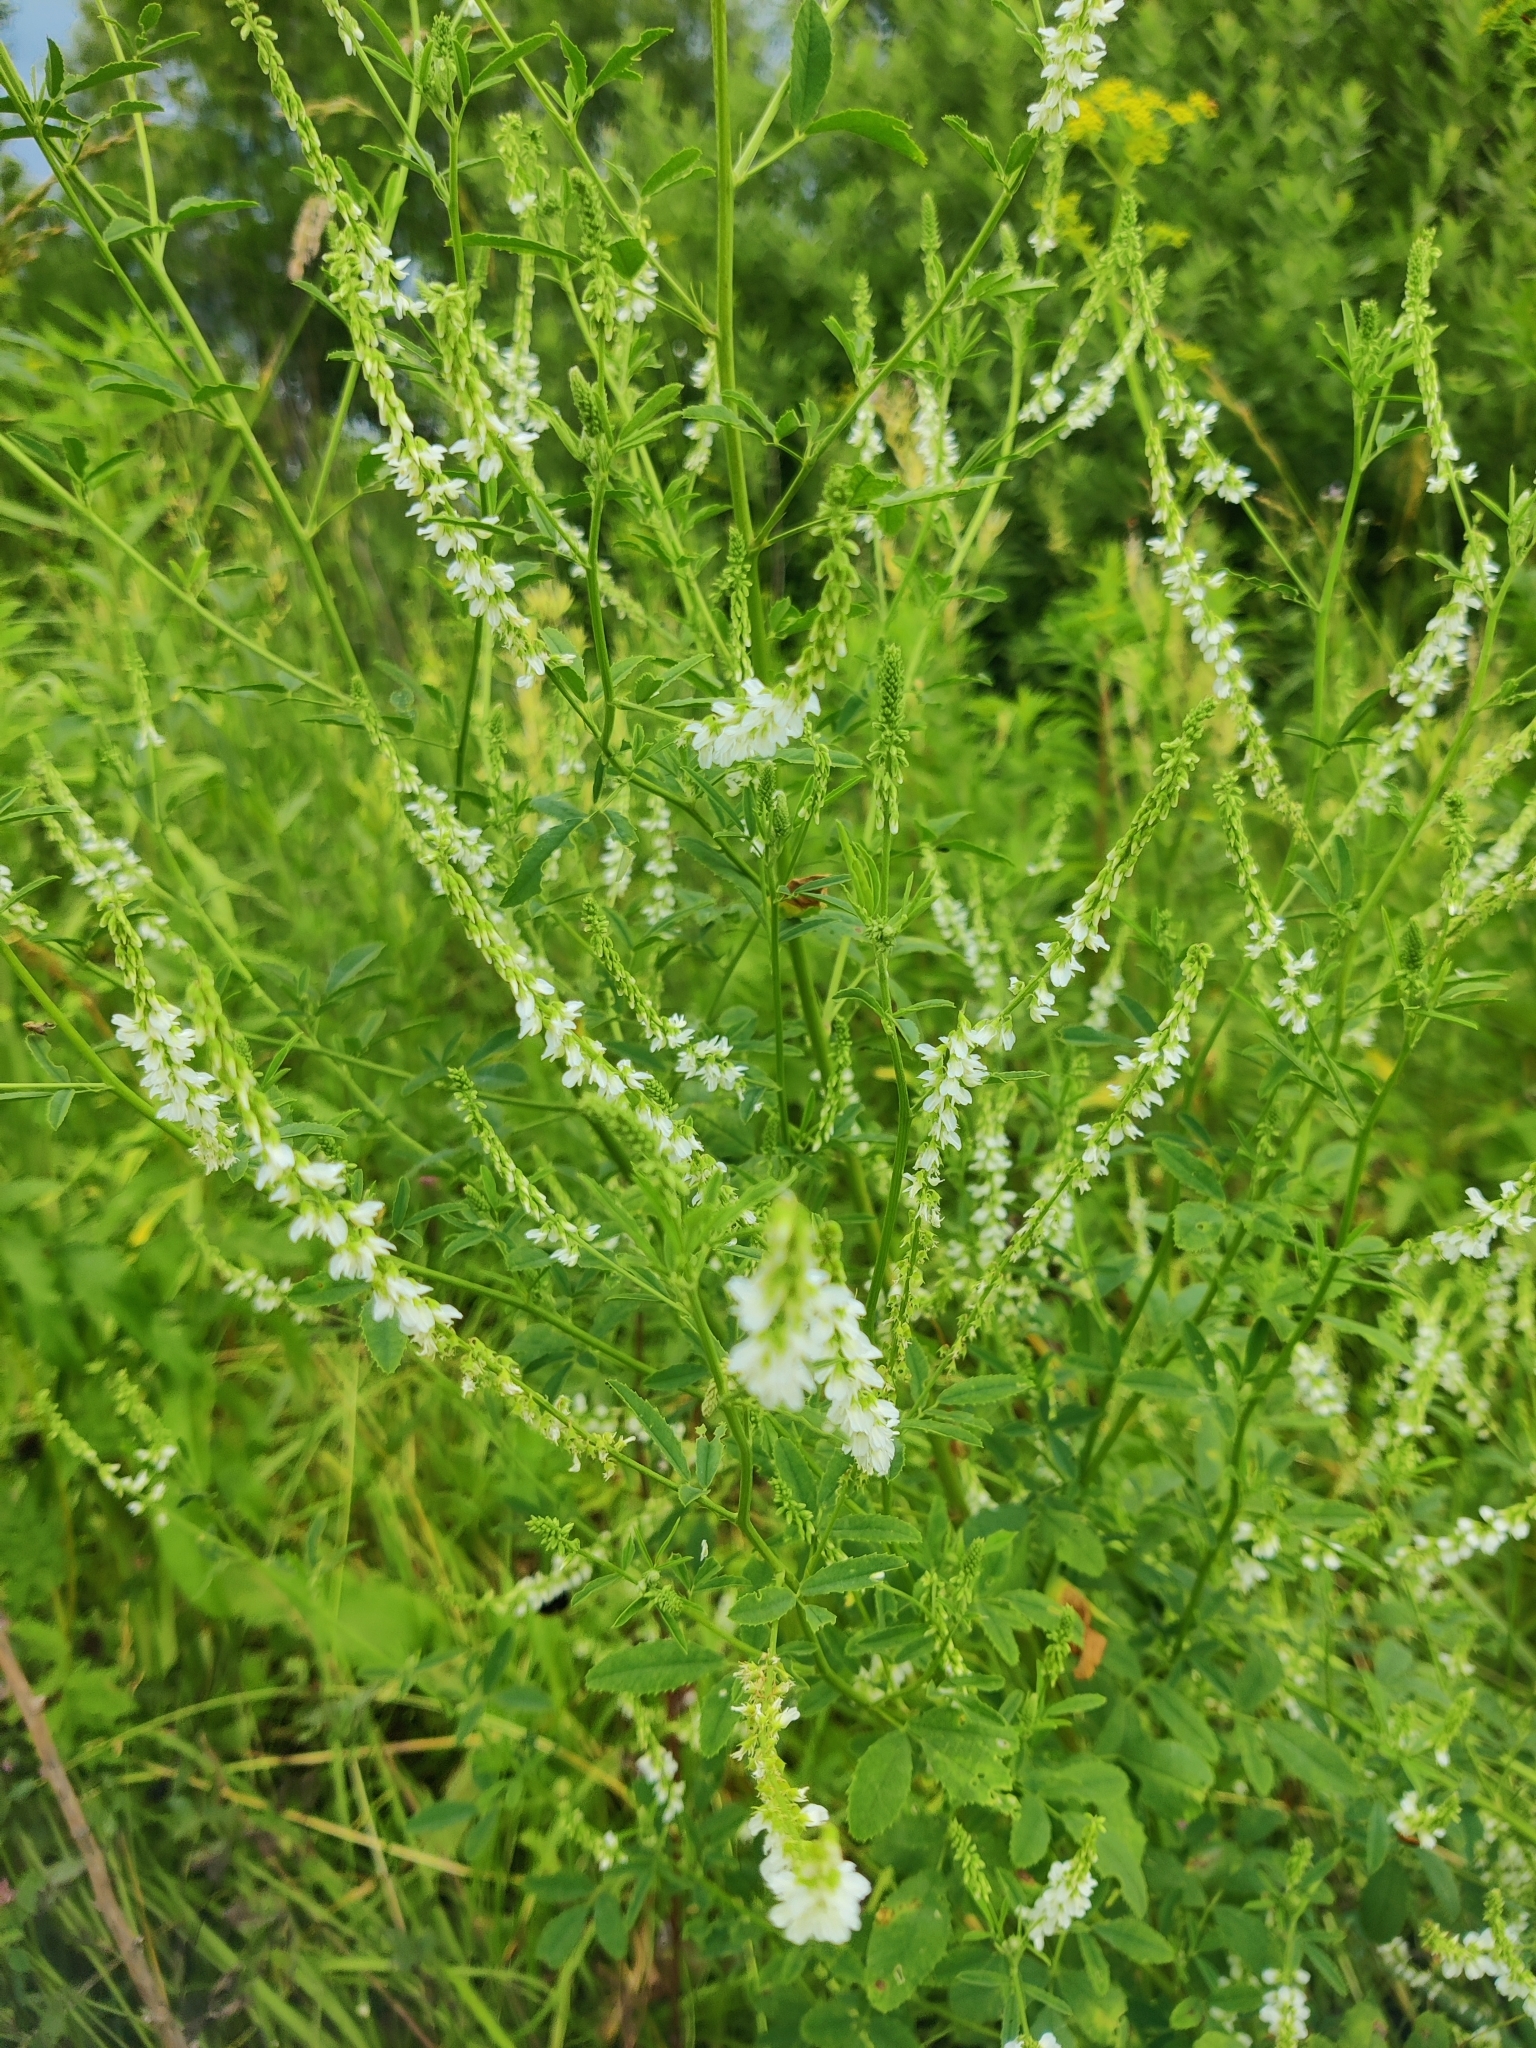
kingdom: Plantae
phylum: Tracheophyta
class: Magnoliopsida
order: Fabales
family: Fabaceae
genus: Melilotus
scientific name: Melilotus albus
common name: White melilot
